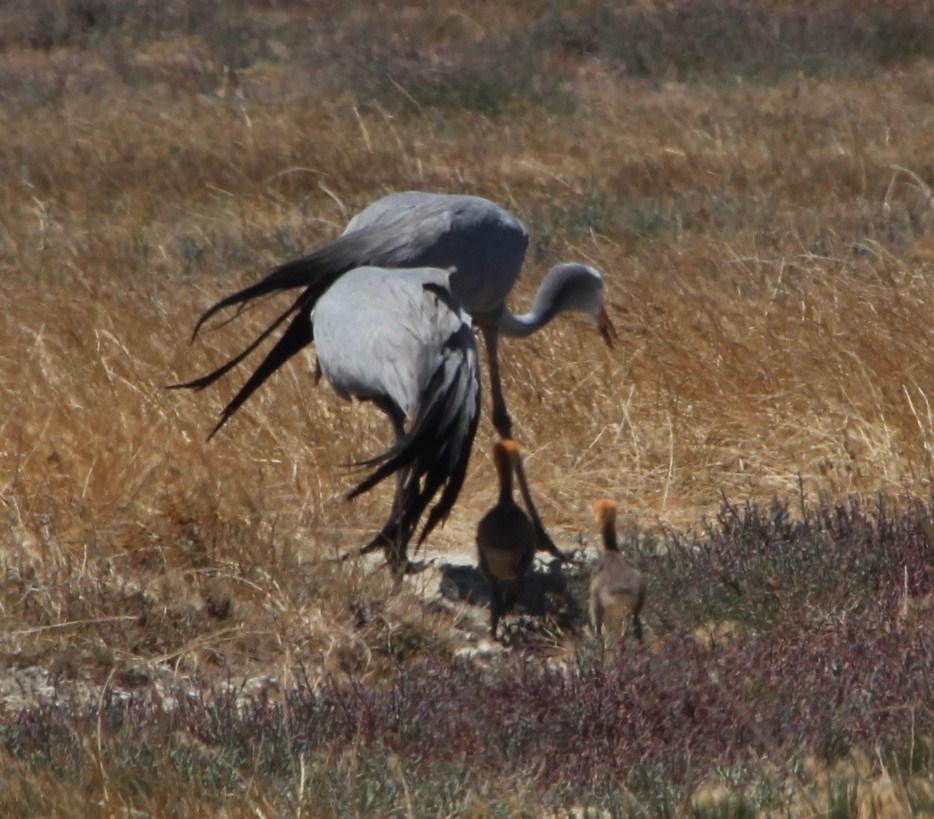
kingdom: Animalia
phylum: Chordata
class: Aves
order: Gruiformes
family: Gruidae
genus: Anthropoides
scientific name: Anthropoides paradiseus
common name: Blue crane
